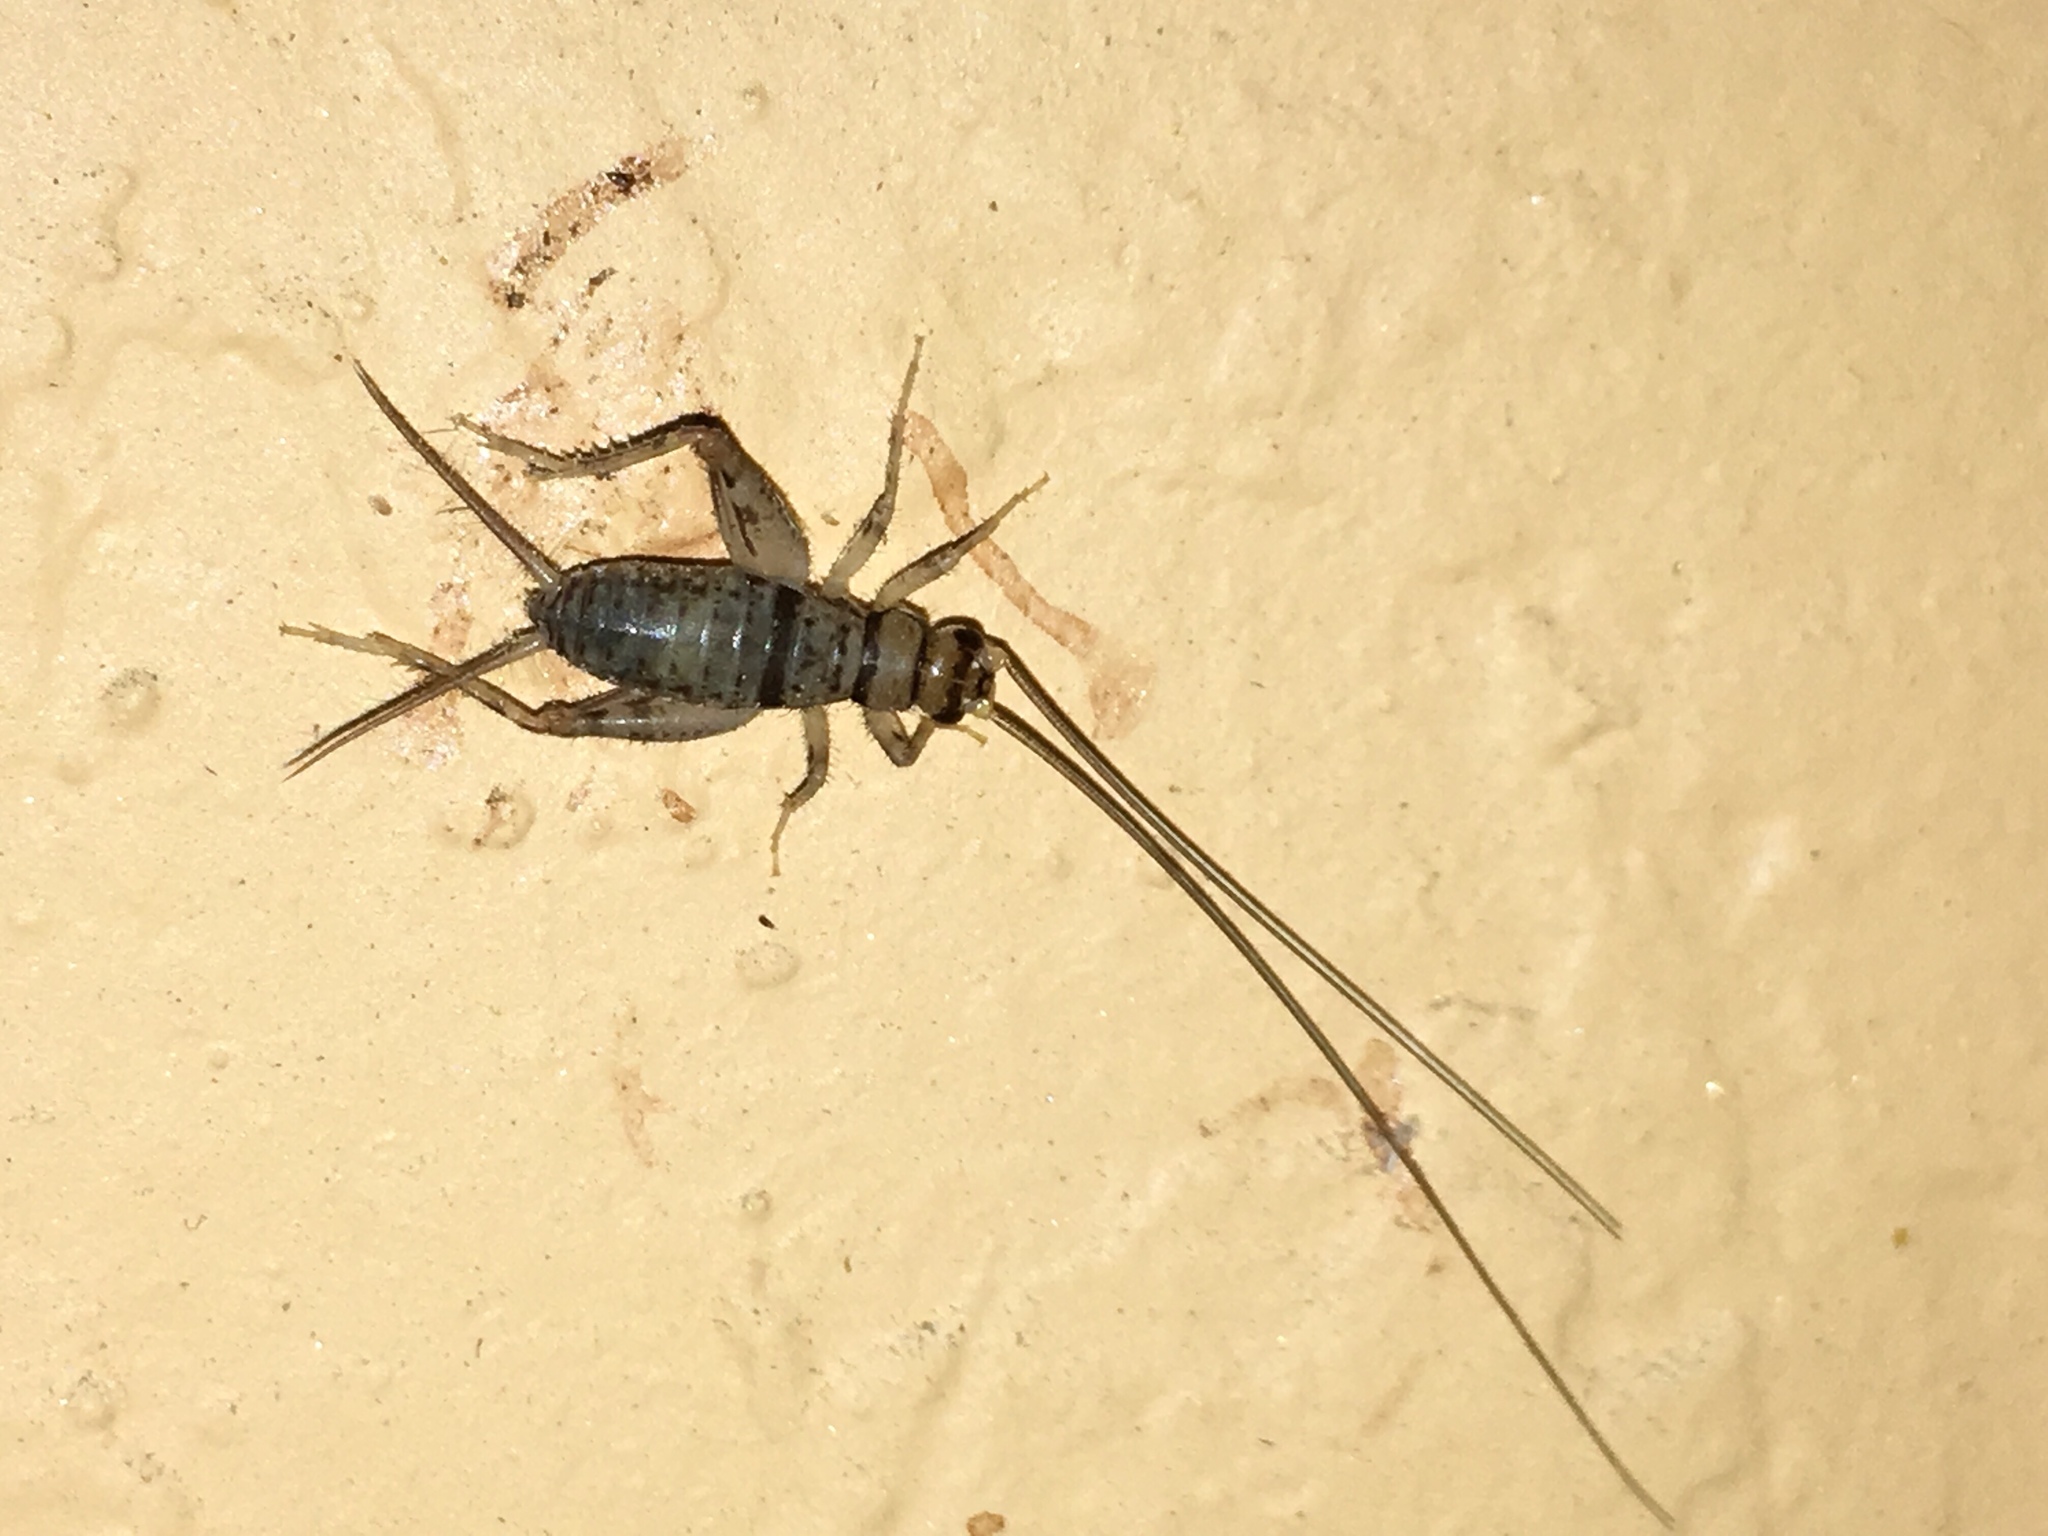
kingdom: Animalia
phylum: Arthropoda
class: Insecta
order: Orthoptera
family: Gryllidae
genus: Gryllodes
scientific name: Gryllodes sigillatus
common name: Tropical house cricket
